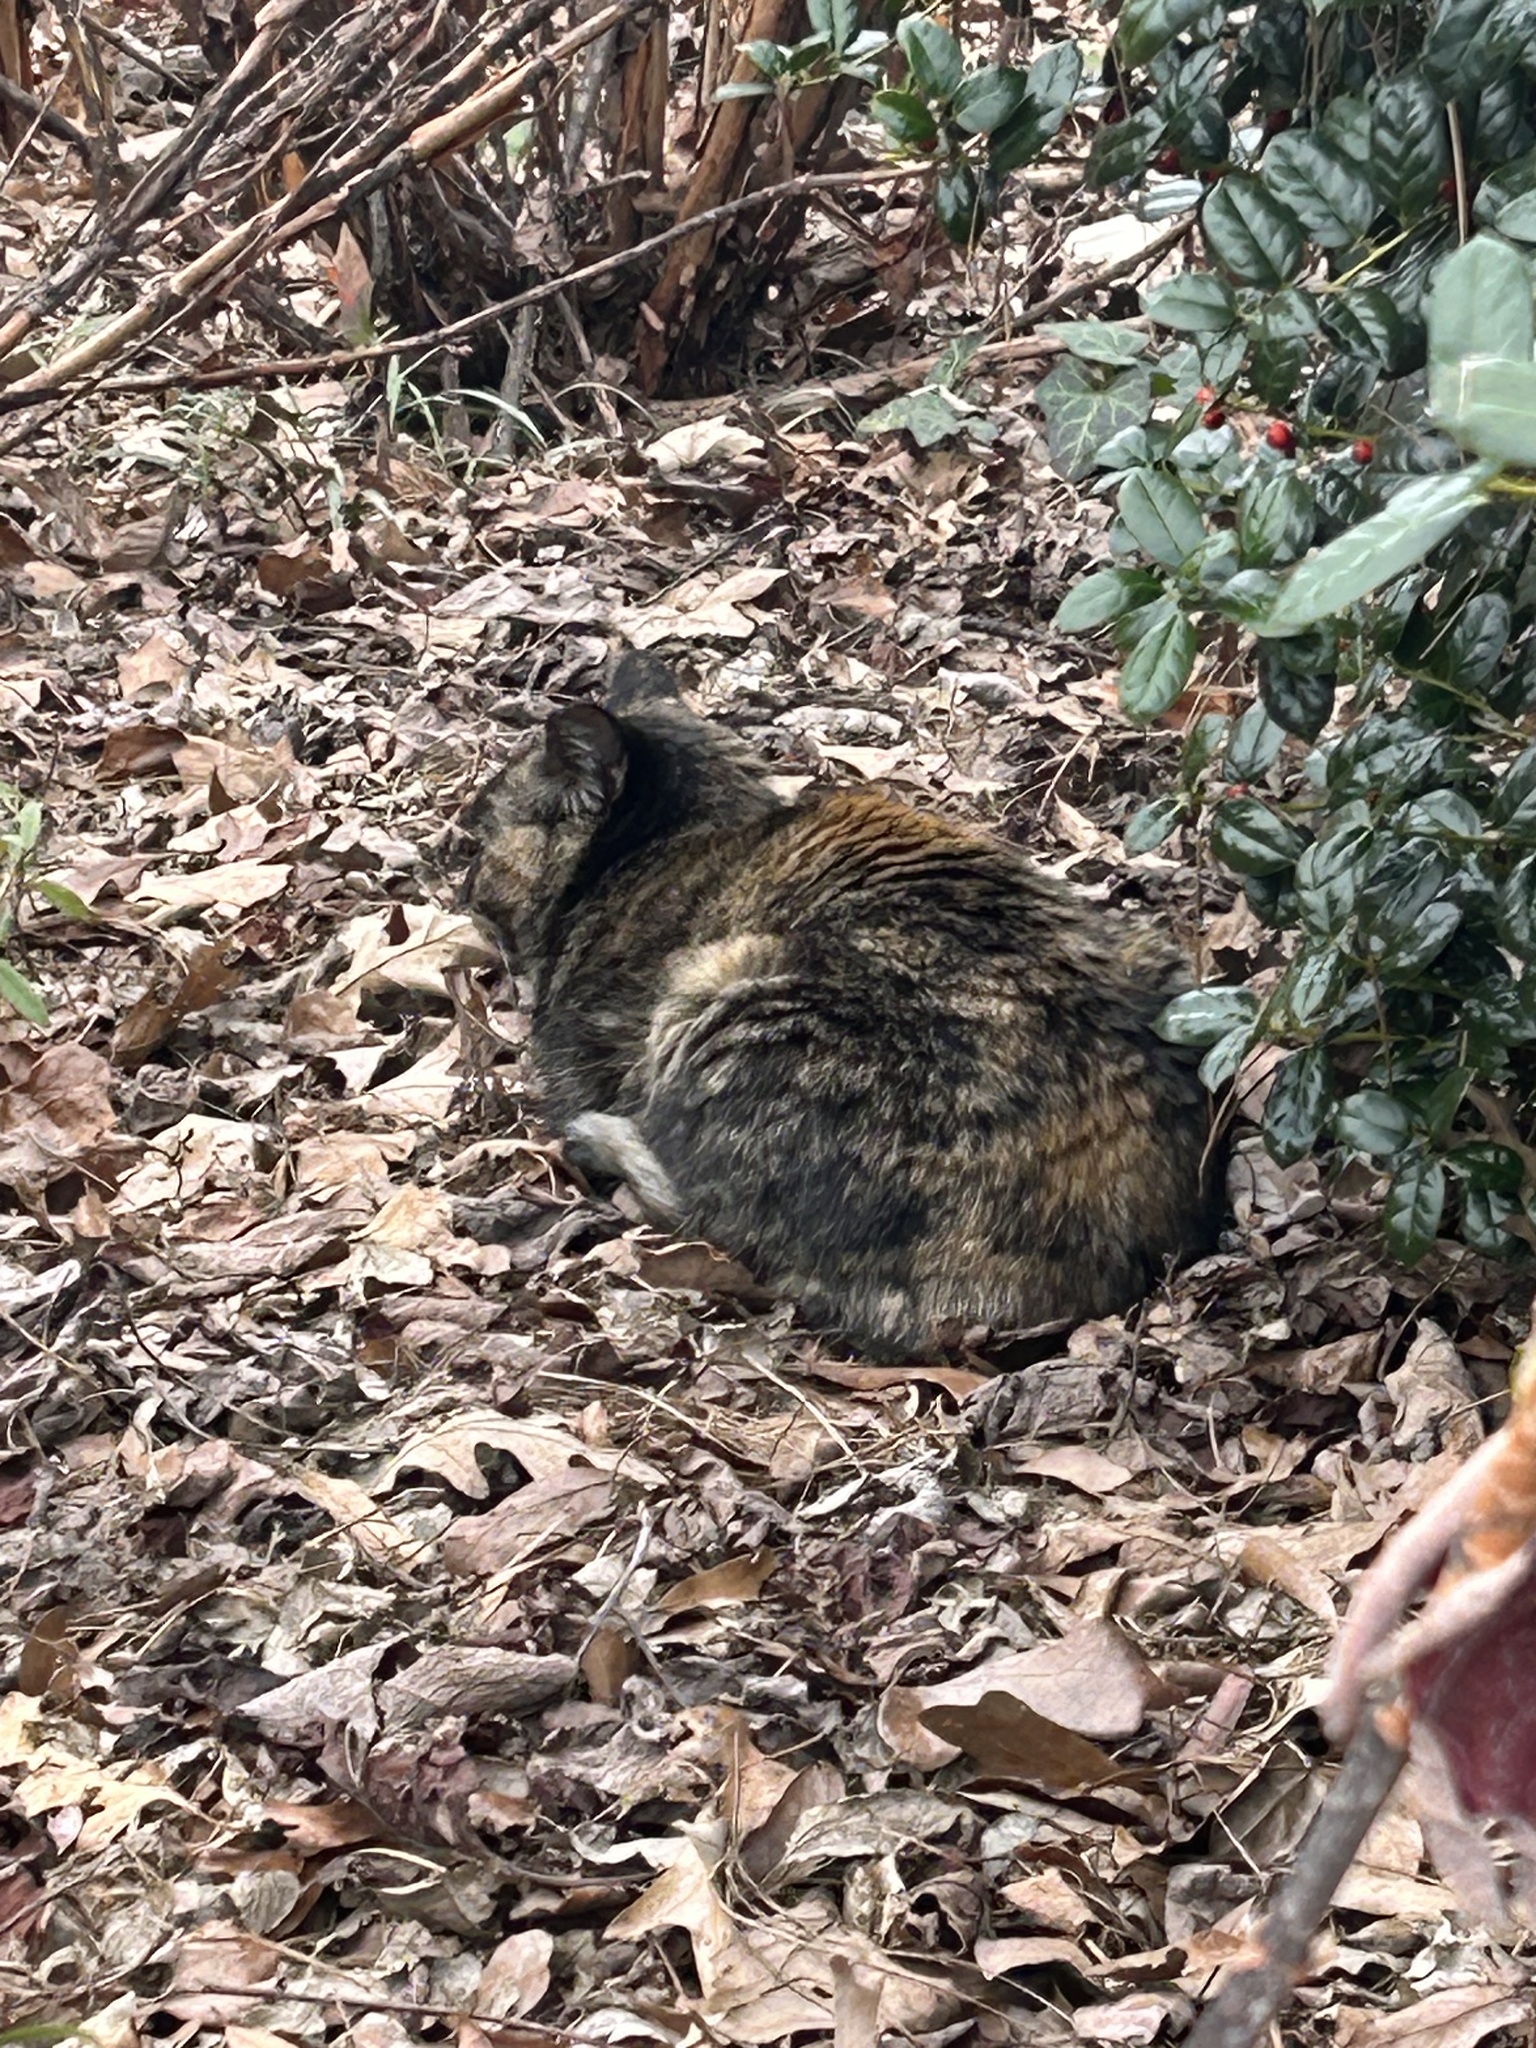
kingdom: Animalia
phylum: Chordata
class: Mammalia
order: Carnivora
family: Felidae
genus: Felis
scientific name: Felis catus
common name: Domestic cat
